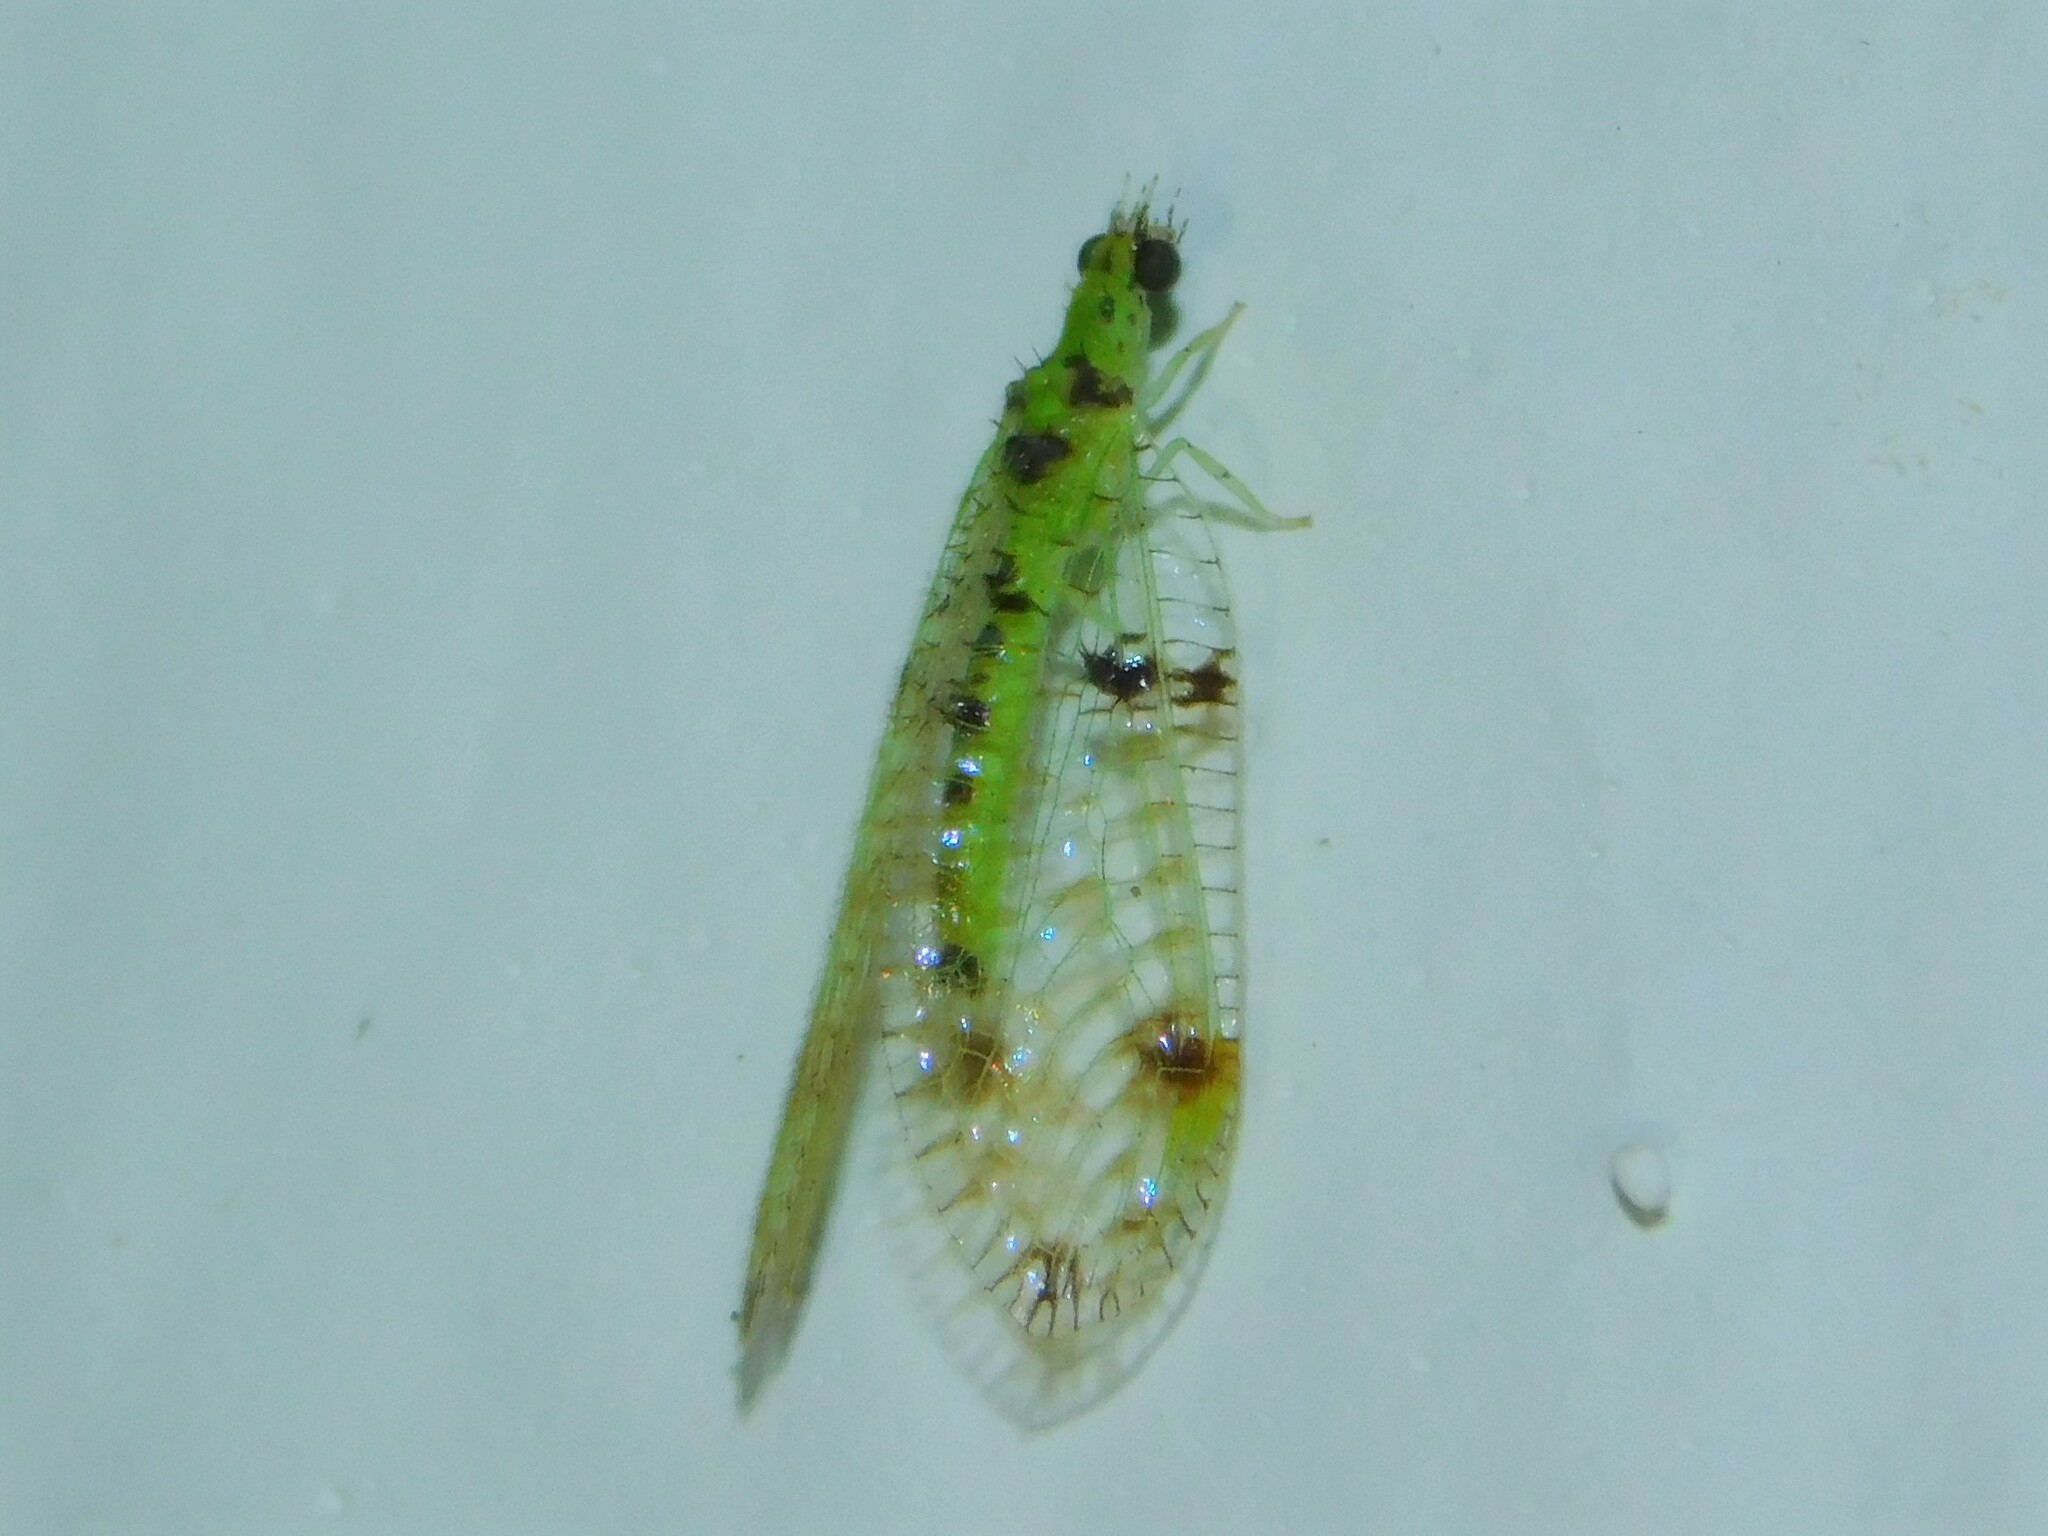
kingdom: Animalia
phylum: Arthropoda
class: Insecta
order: Neuroptera
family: Chrysopidae
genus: Glenochrysa
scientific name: Glenochrysa principissa
